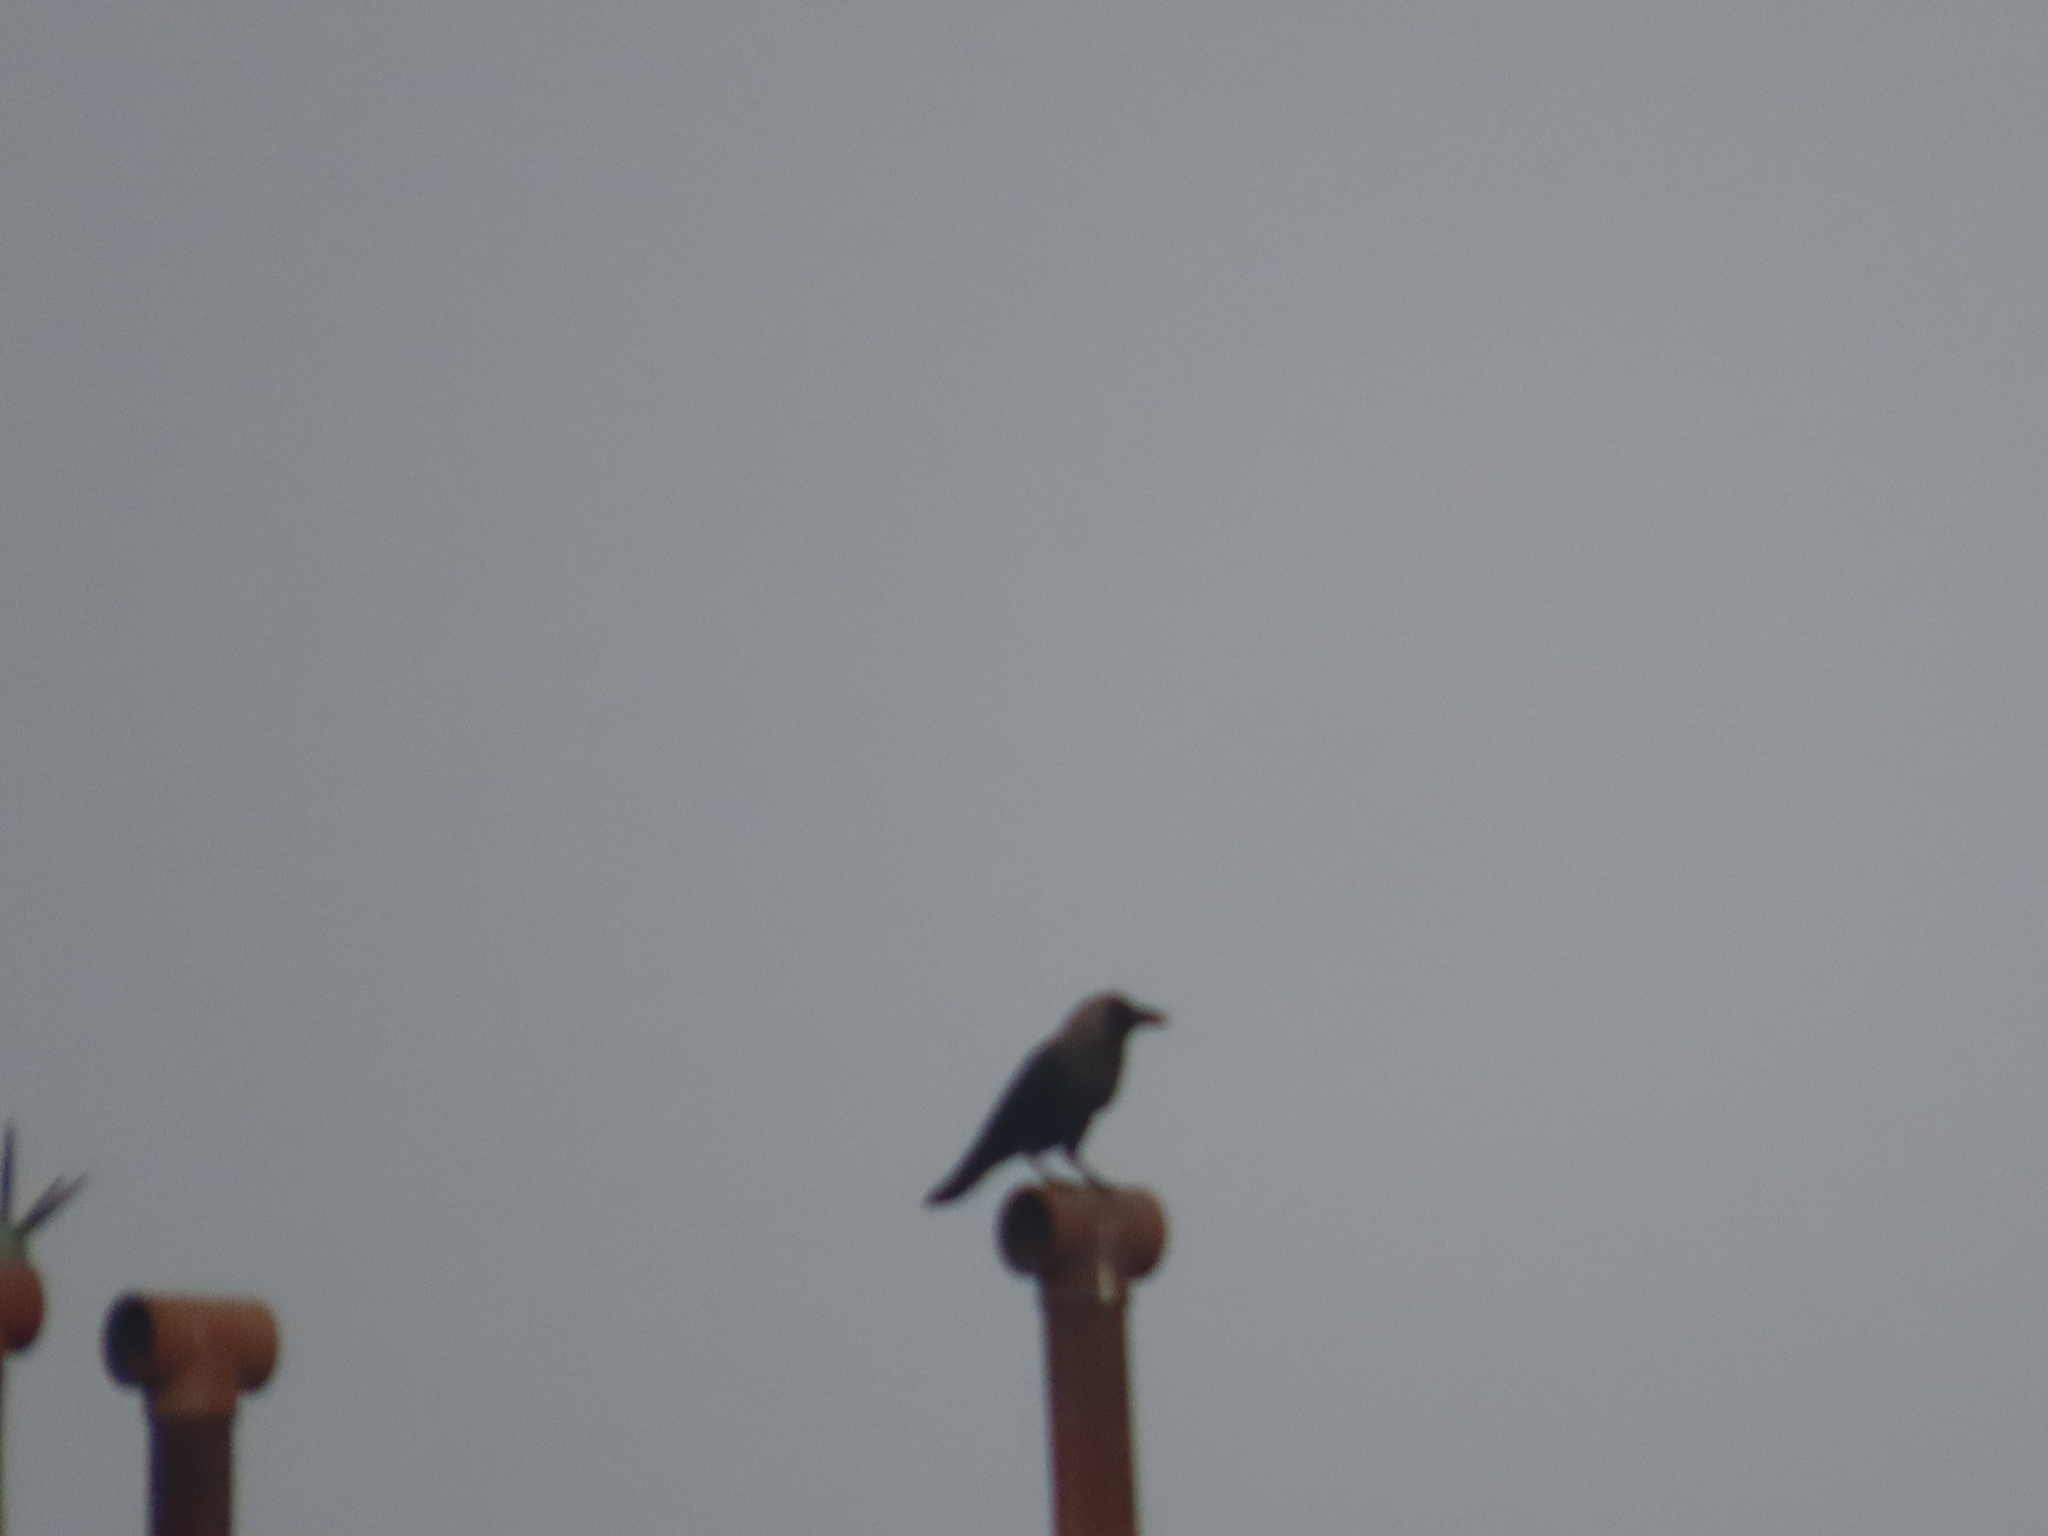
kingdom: Animalia
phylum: Chordata
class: Aves
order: Passeriformes
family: Corvidae
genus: Corvus
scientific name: Corvus splendens
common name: House crow
